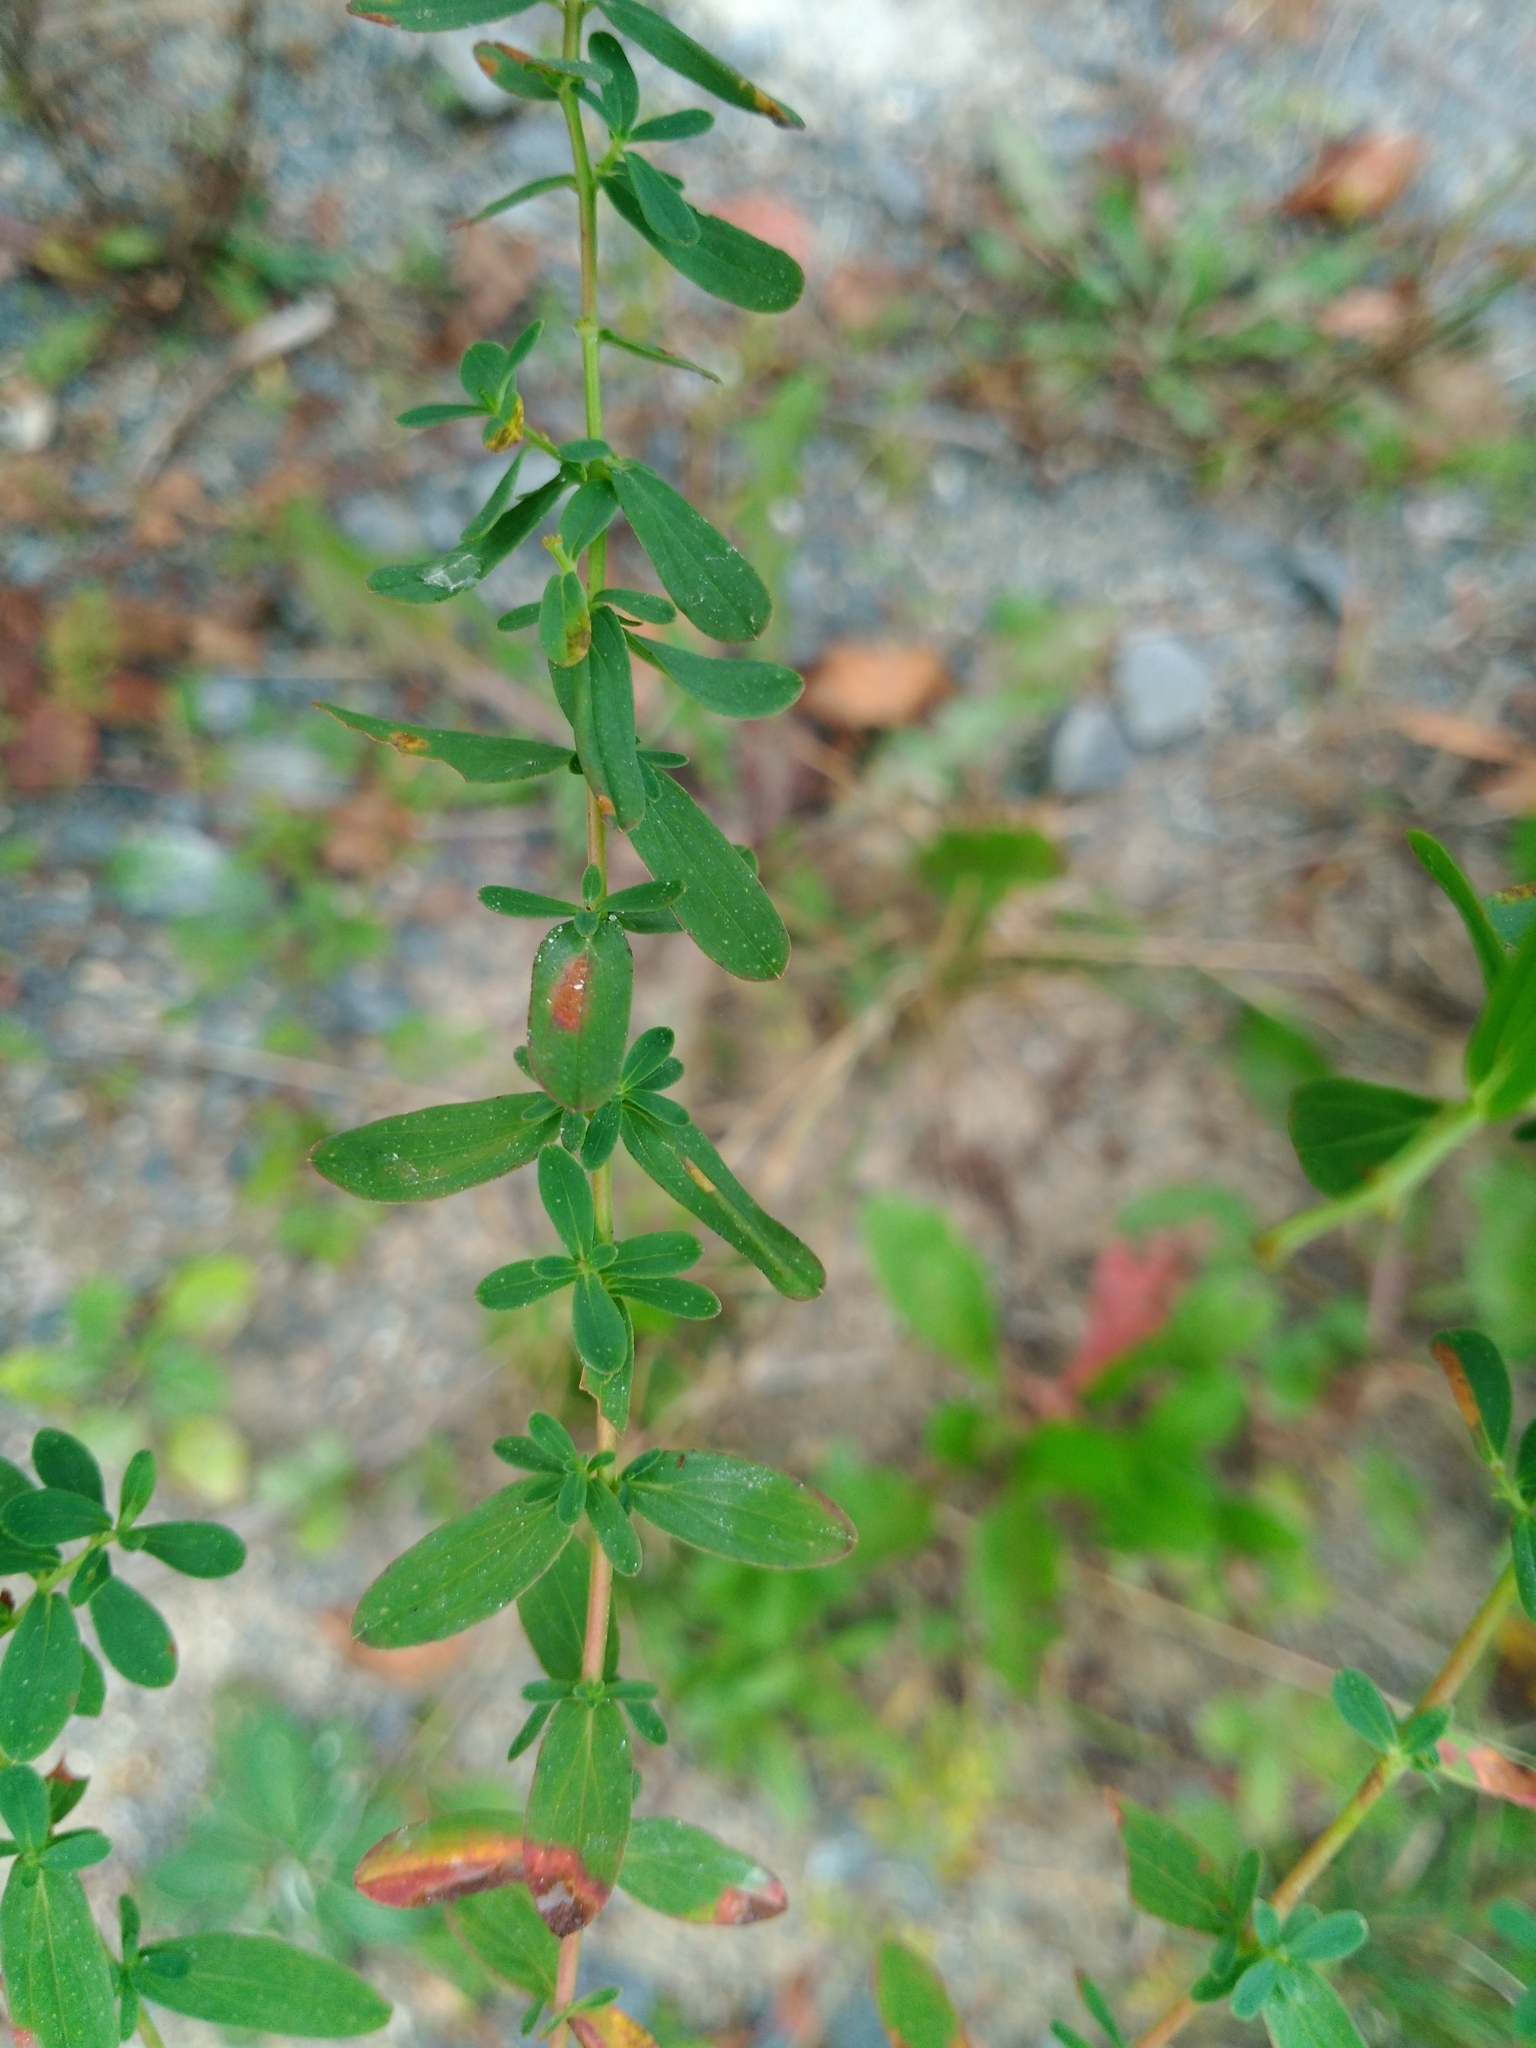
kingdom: Plantae
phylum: Tracheophyta
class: Magnoliopsida
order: Malpighiales
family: Hypericaceae
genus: Hypericum
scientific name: Hypericum perforatum
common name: Common st. johnswort
